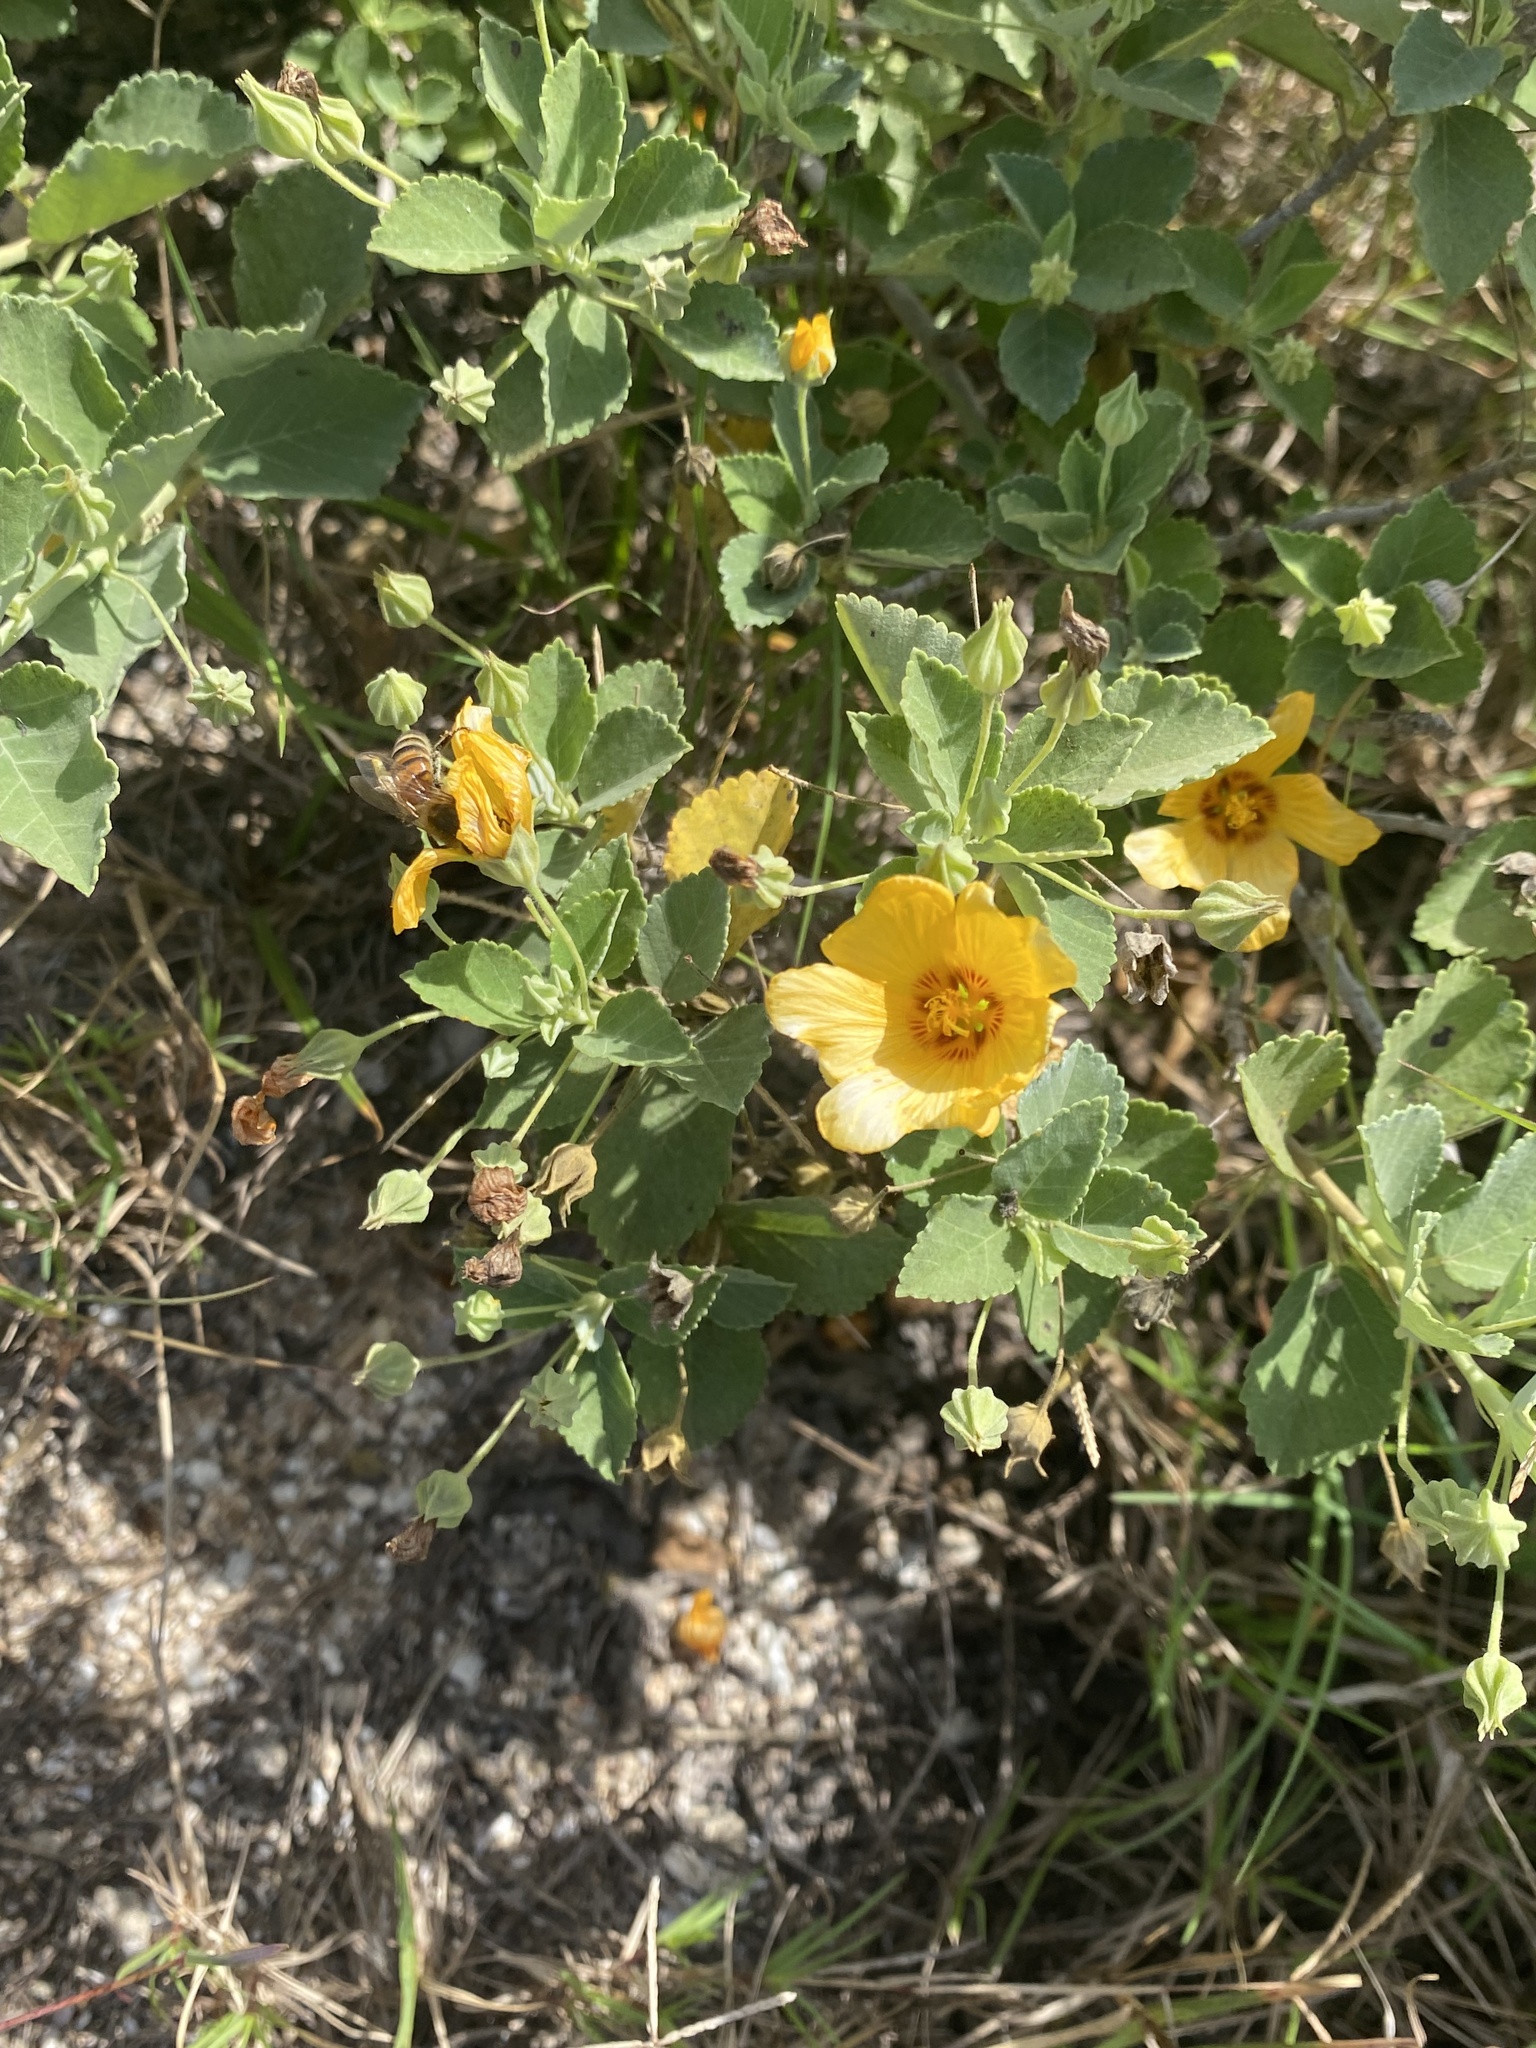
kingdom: Plantae
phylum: Tracheophyta
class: Magnoliopsida
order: Malvales
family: Malvaceae
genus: Sida
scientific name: Sida fallax
